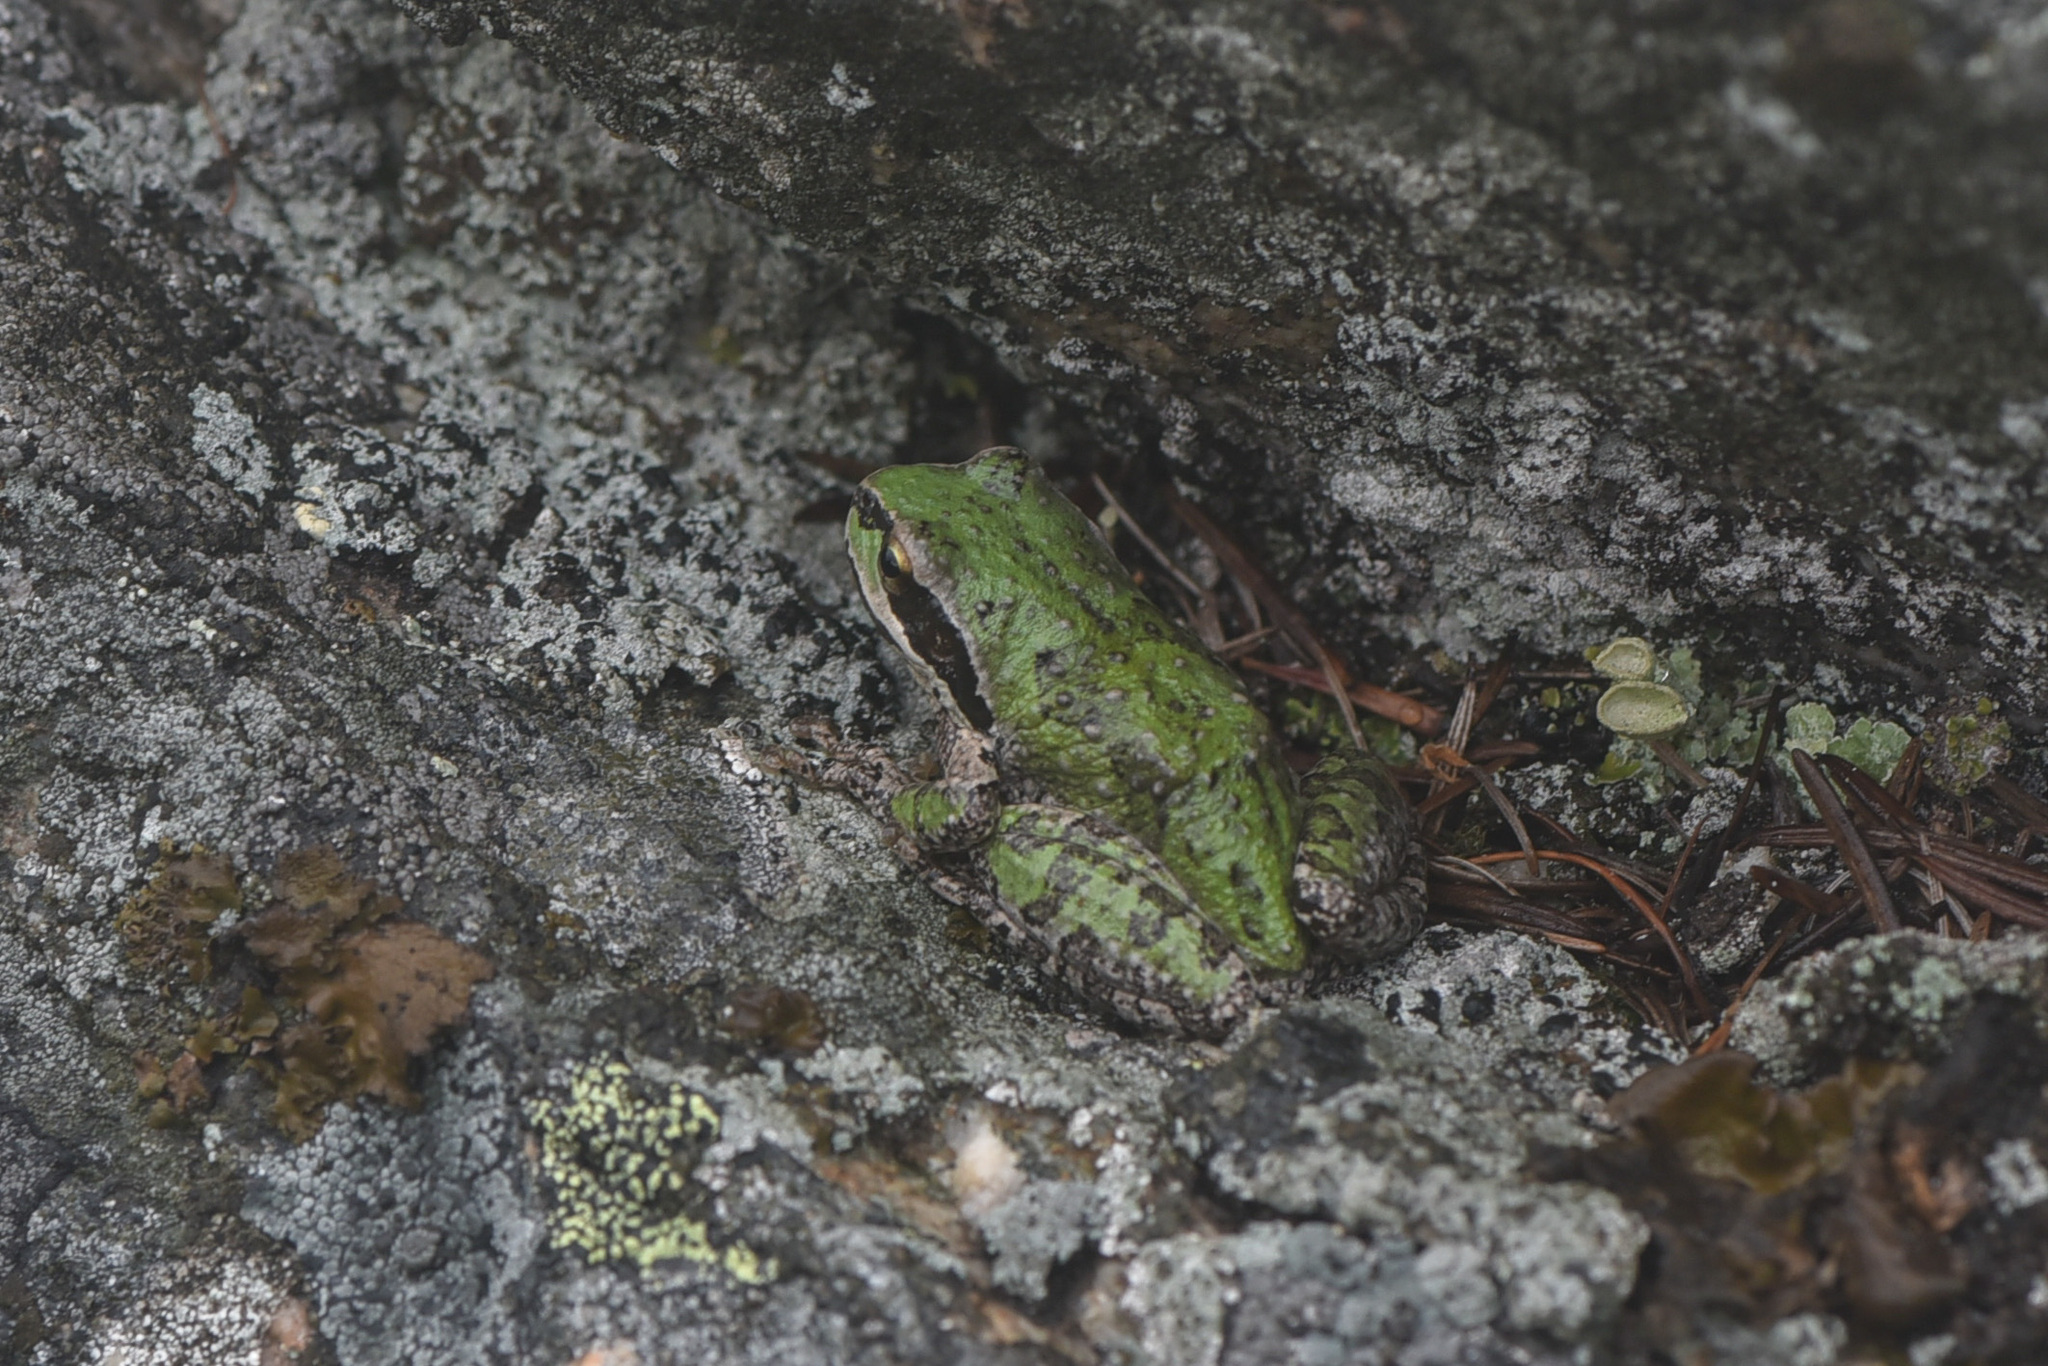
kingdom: Animalia
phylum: Chordata
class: Amphibia
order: Anura
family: Hylidae
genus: Pseudacris
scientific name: Pseudacris regilla
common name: Pacific chorus frog
